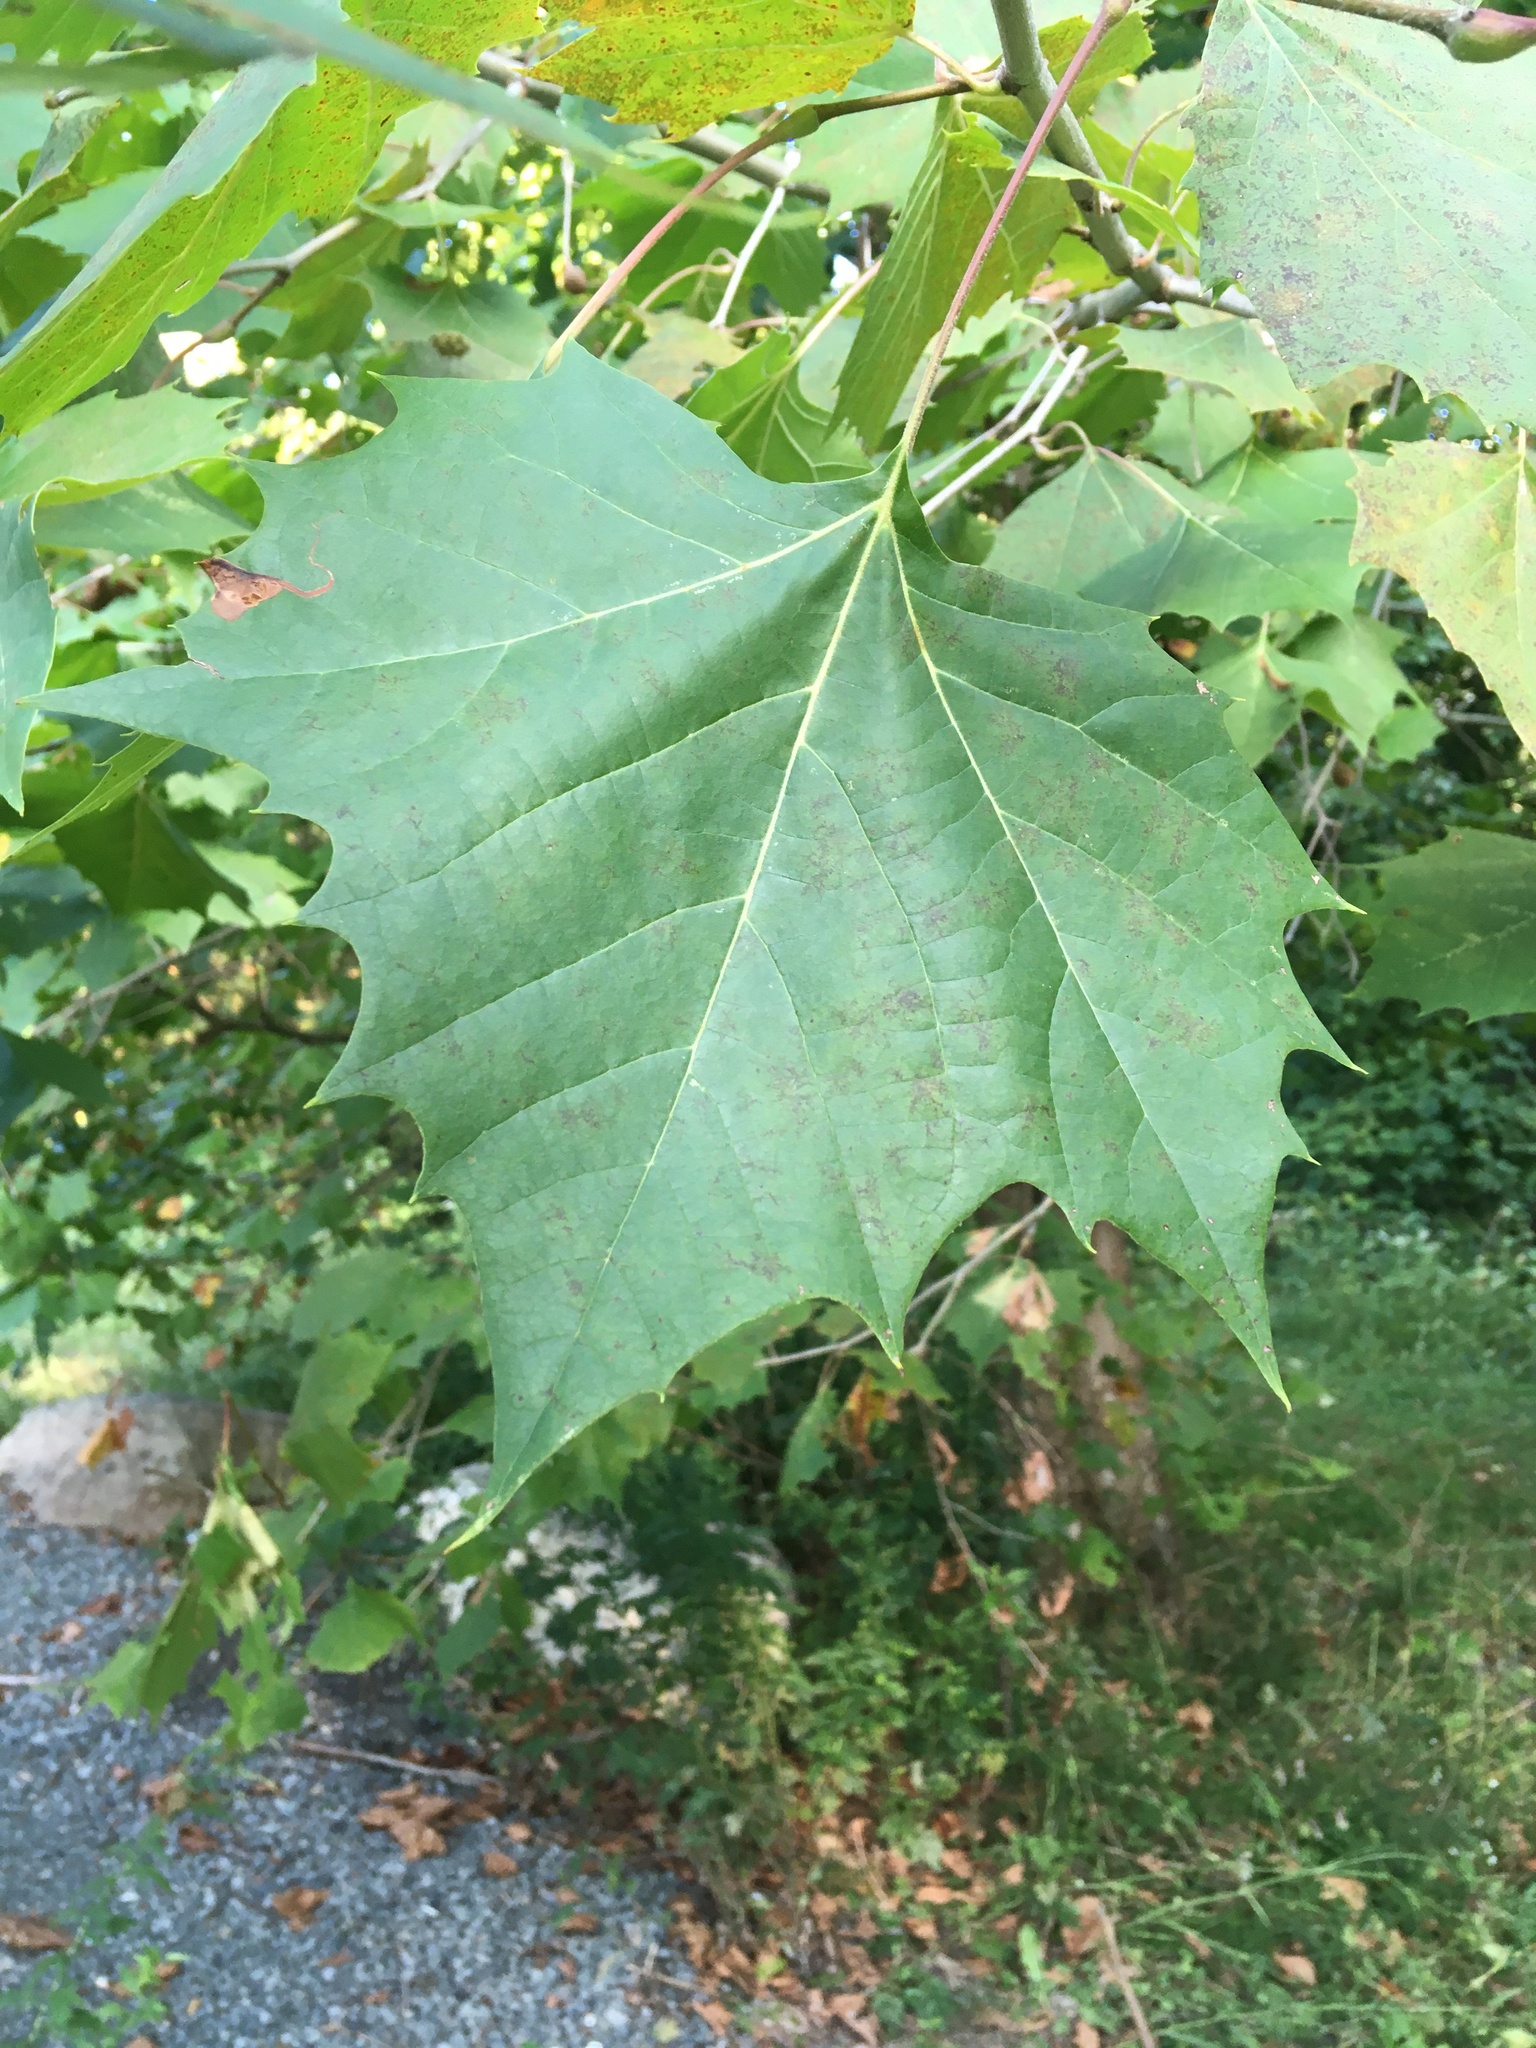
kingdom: Plantae
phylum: Tracheophyta
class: Magnoliopsida
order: Proteales
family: Platanaceae
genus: Platanus
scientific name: Platanus occidentalis
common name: American sycamore
